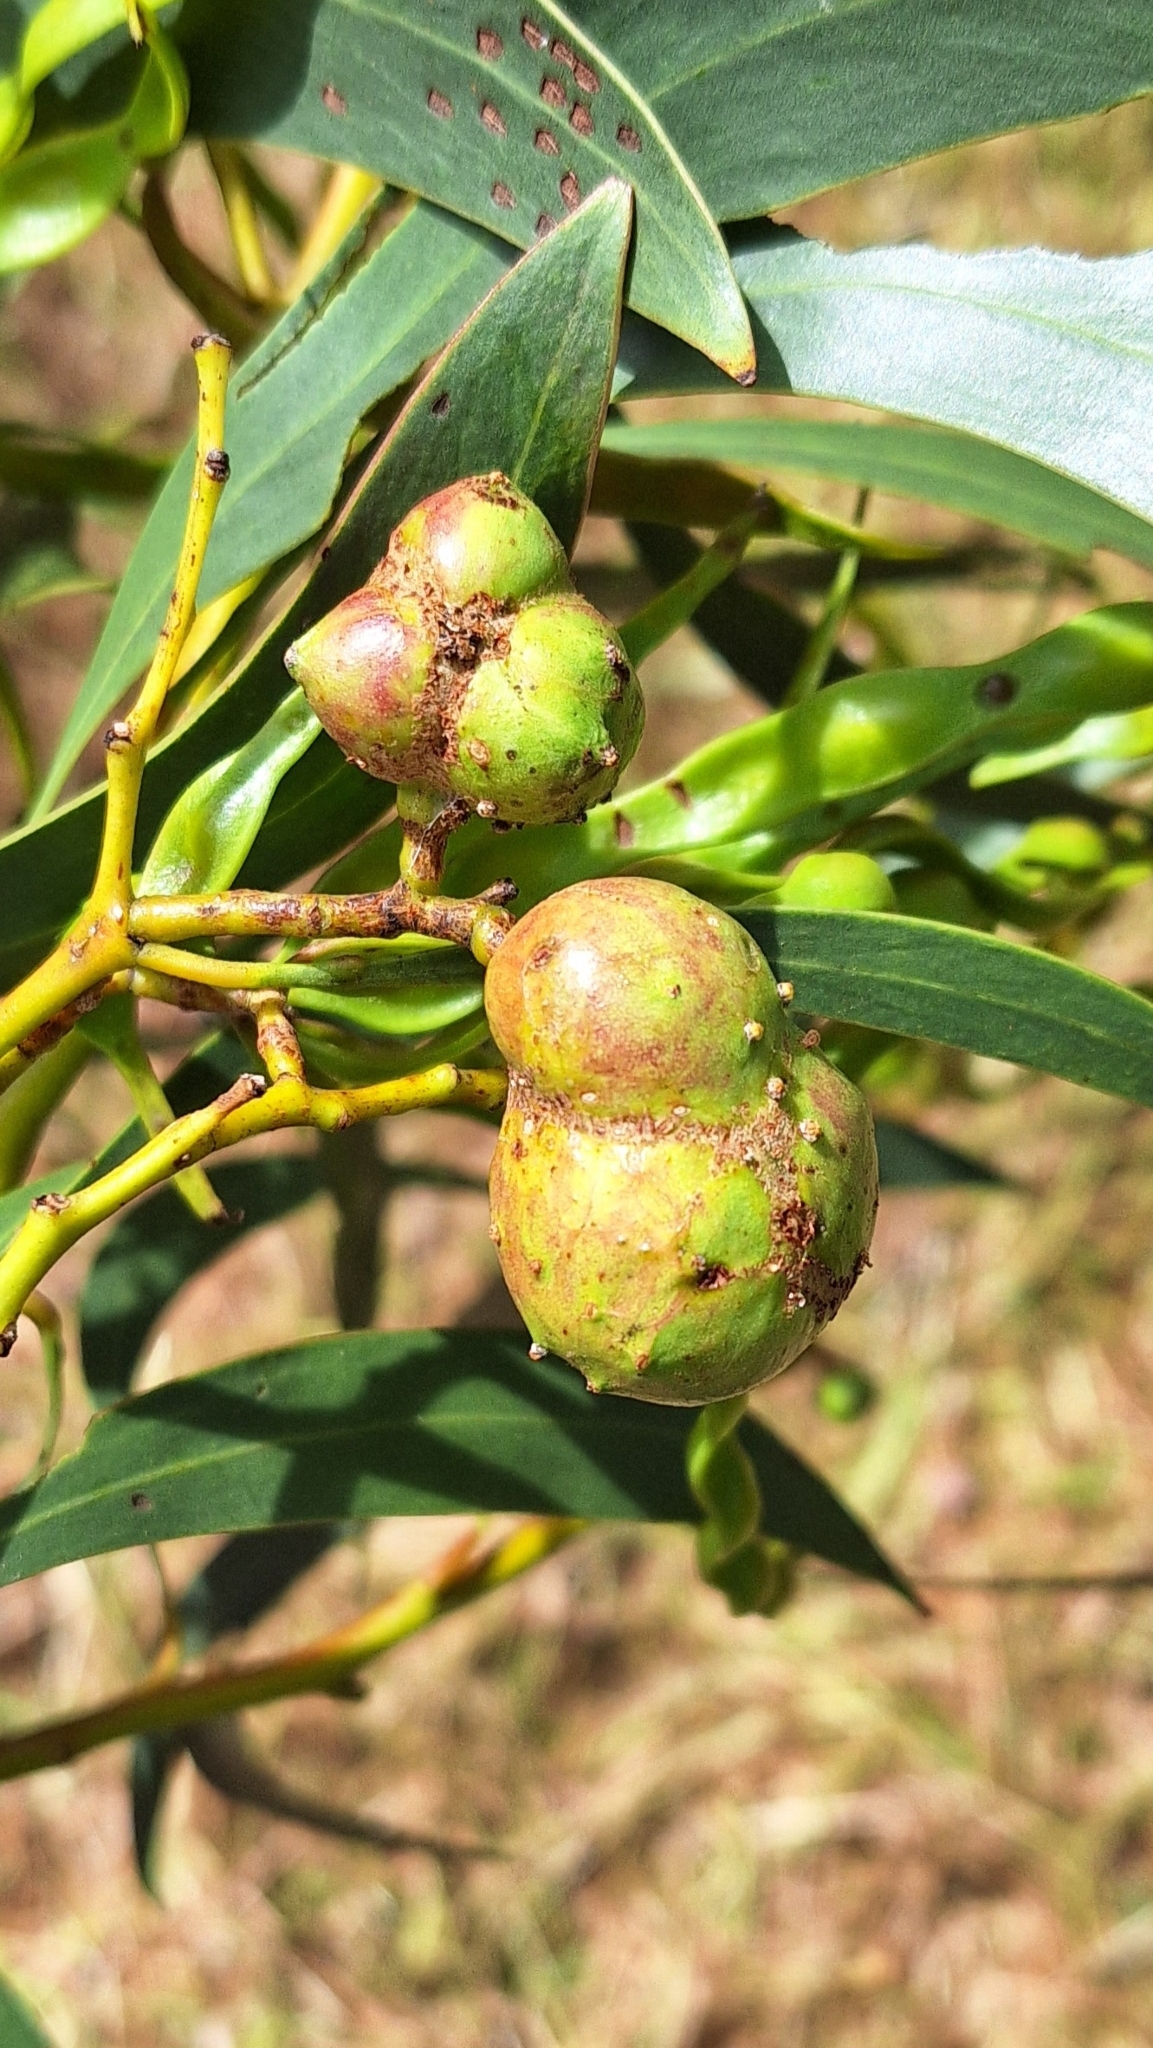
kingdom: Animalia
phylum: Arthropoda
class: Insecta
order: Hymenoptera
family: Pteromalidae
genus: Trichilogaster
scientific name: Trichilogaster signiventris
